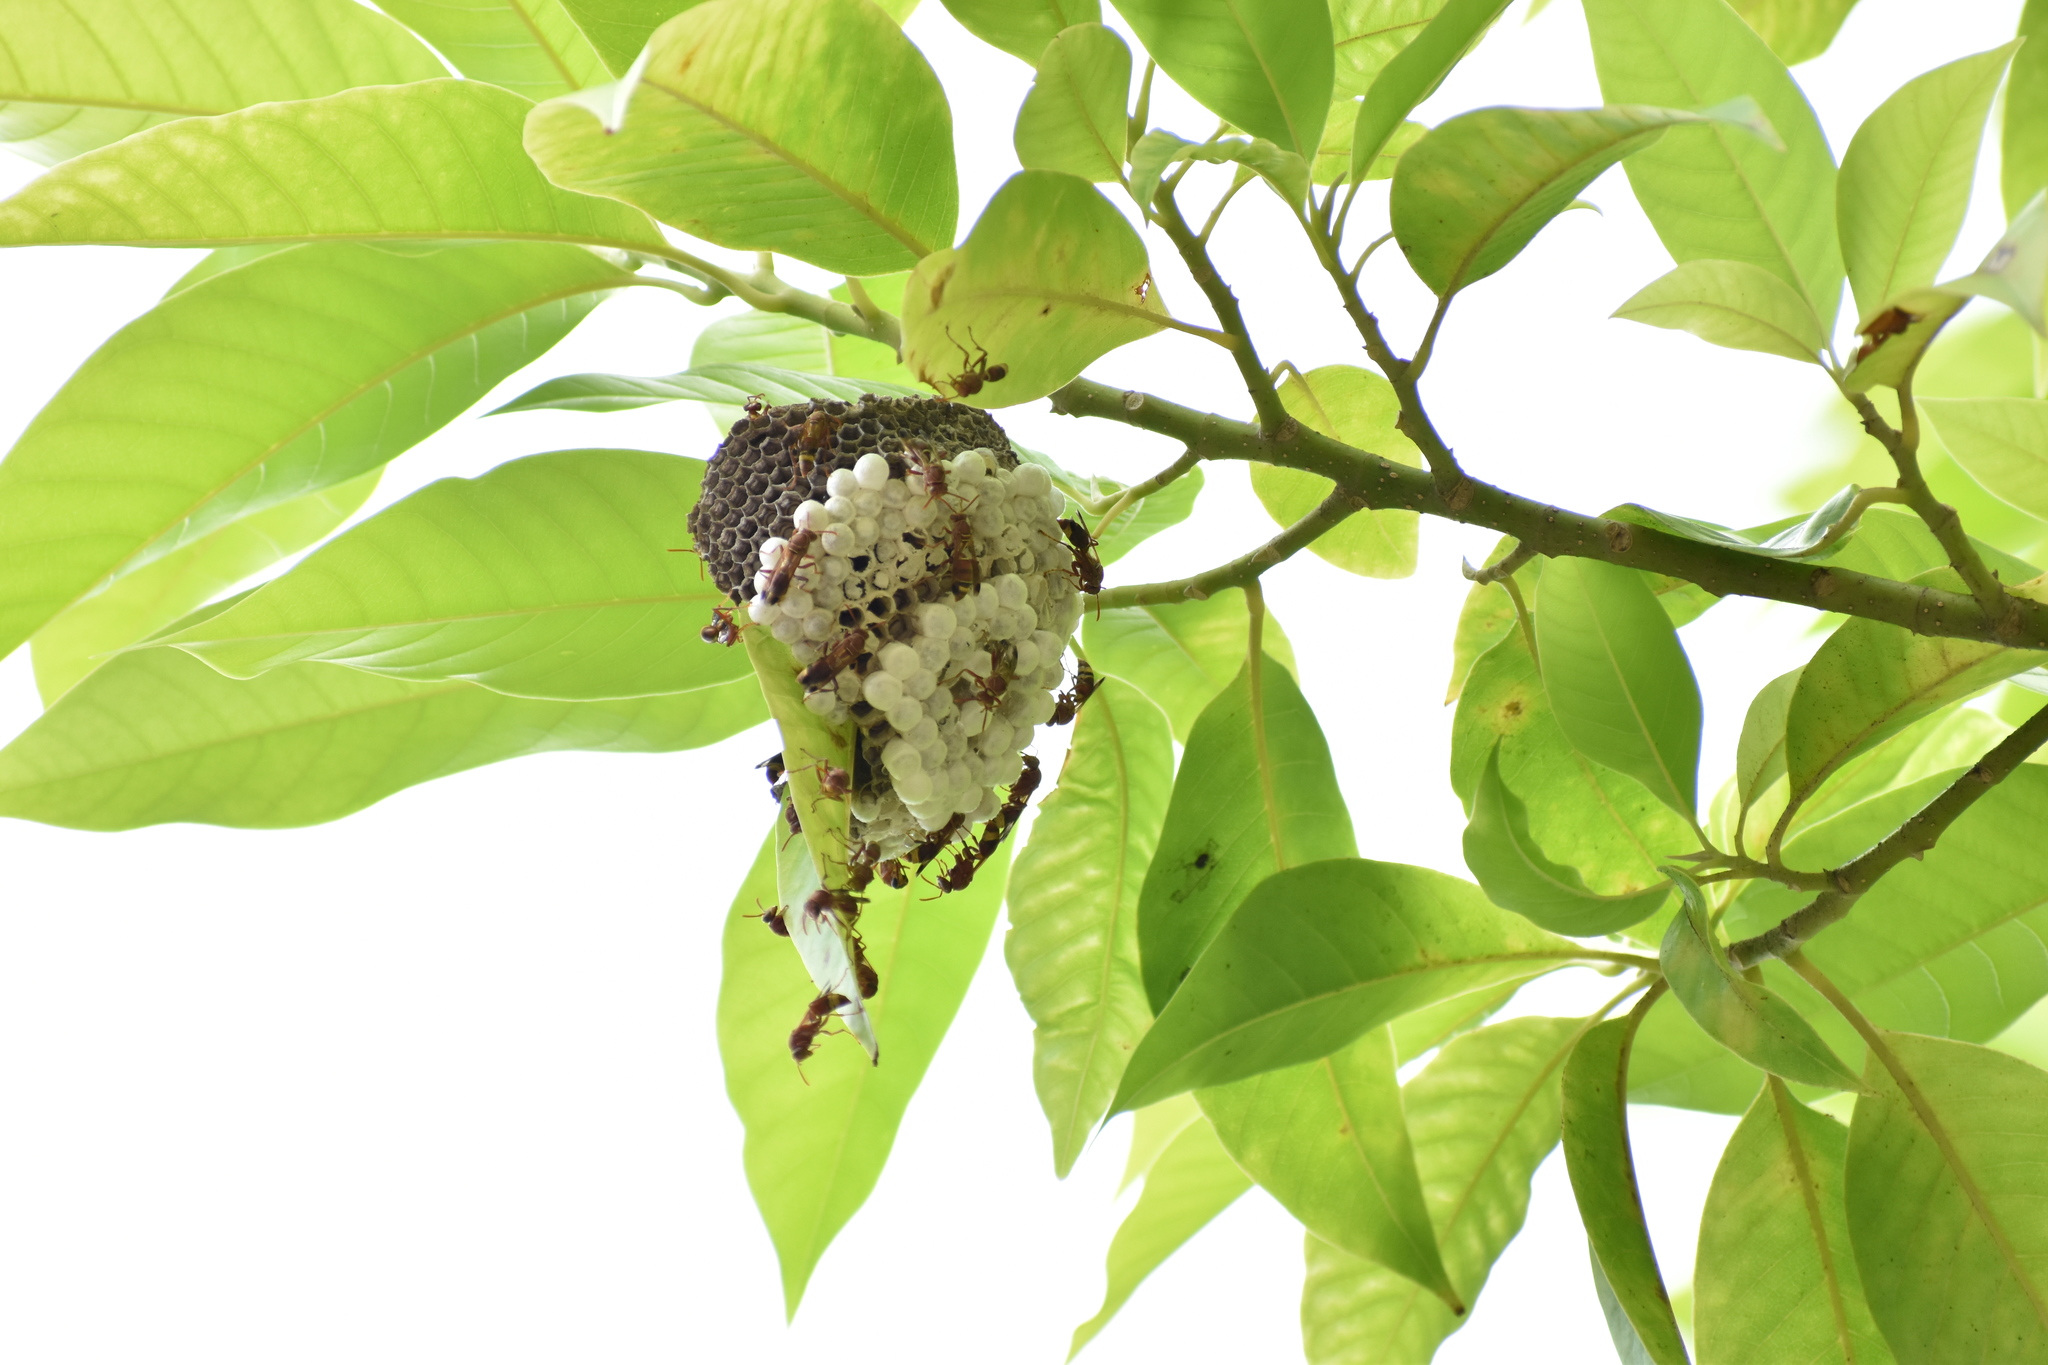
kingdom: Animalia
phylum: Arthropoda
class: Insecta
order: Hymenoptera
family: Eumenidae
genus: Polistes
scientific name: Polistes stigma
